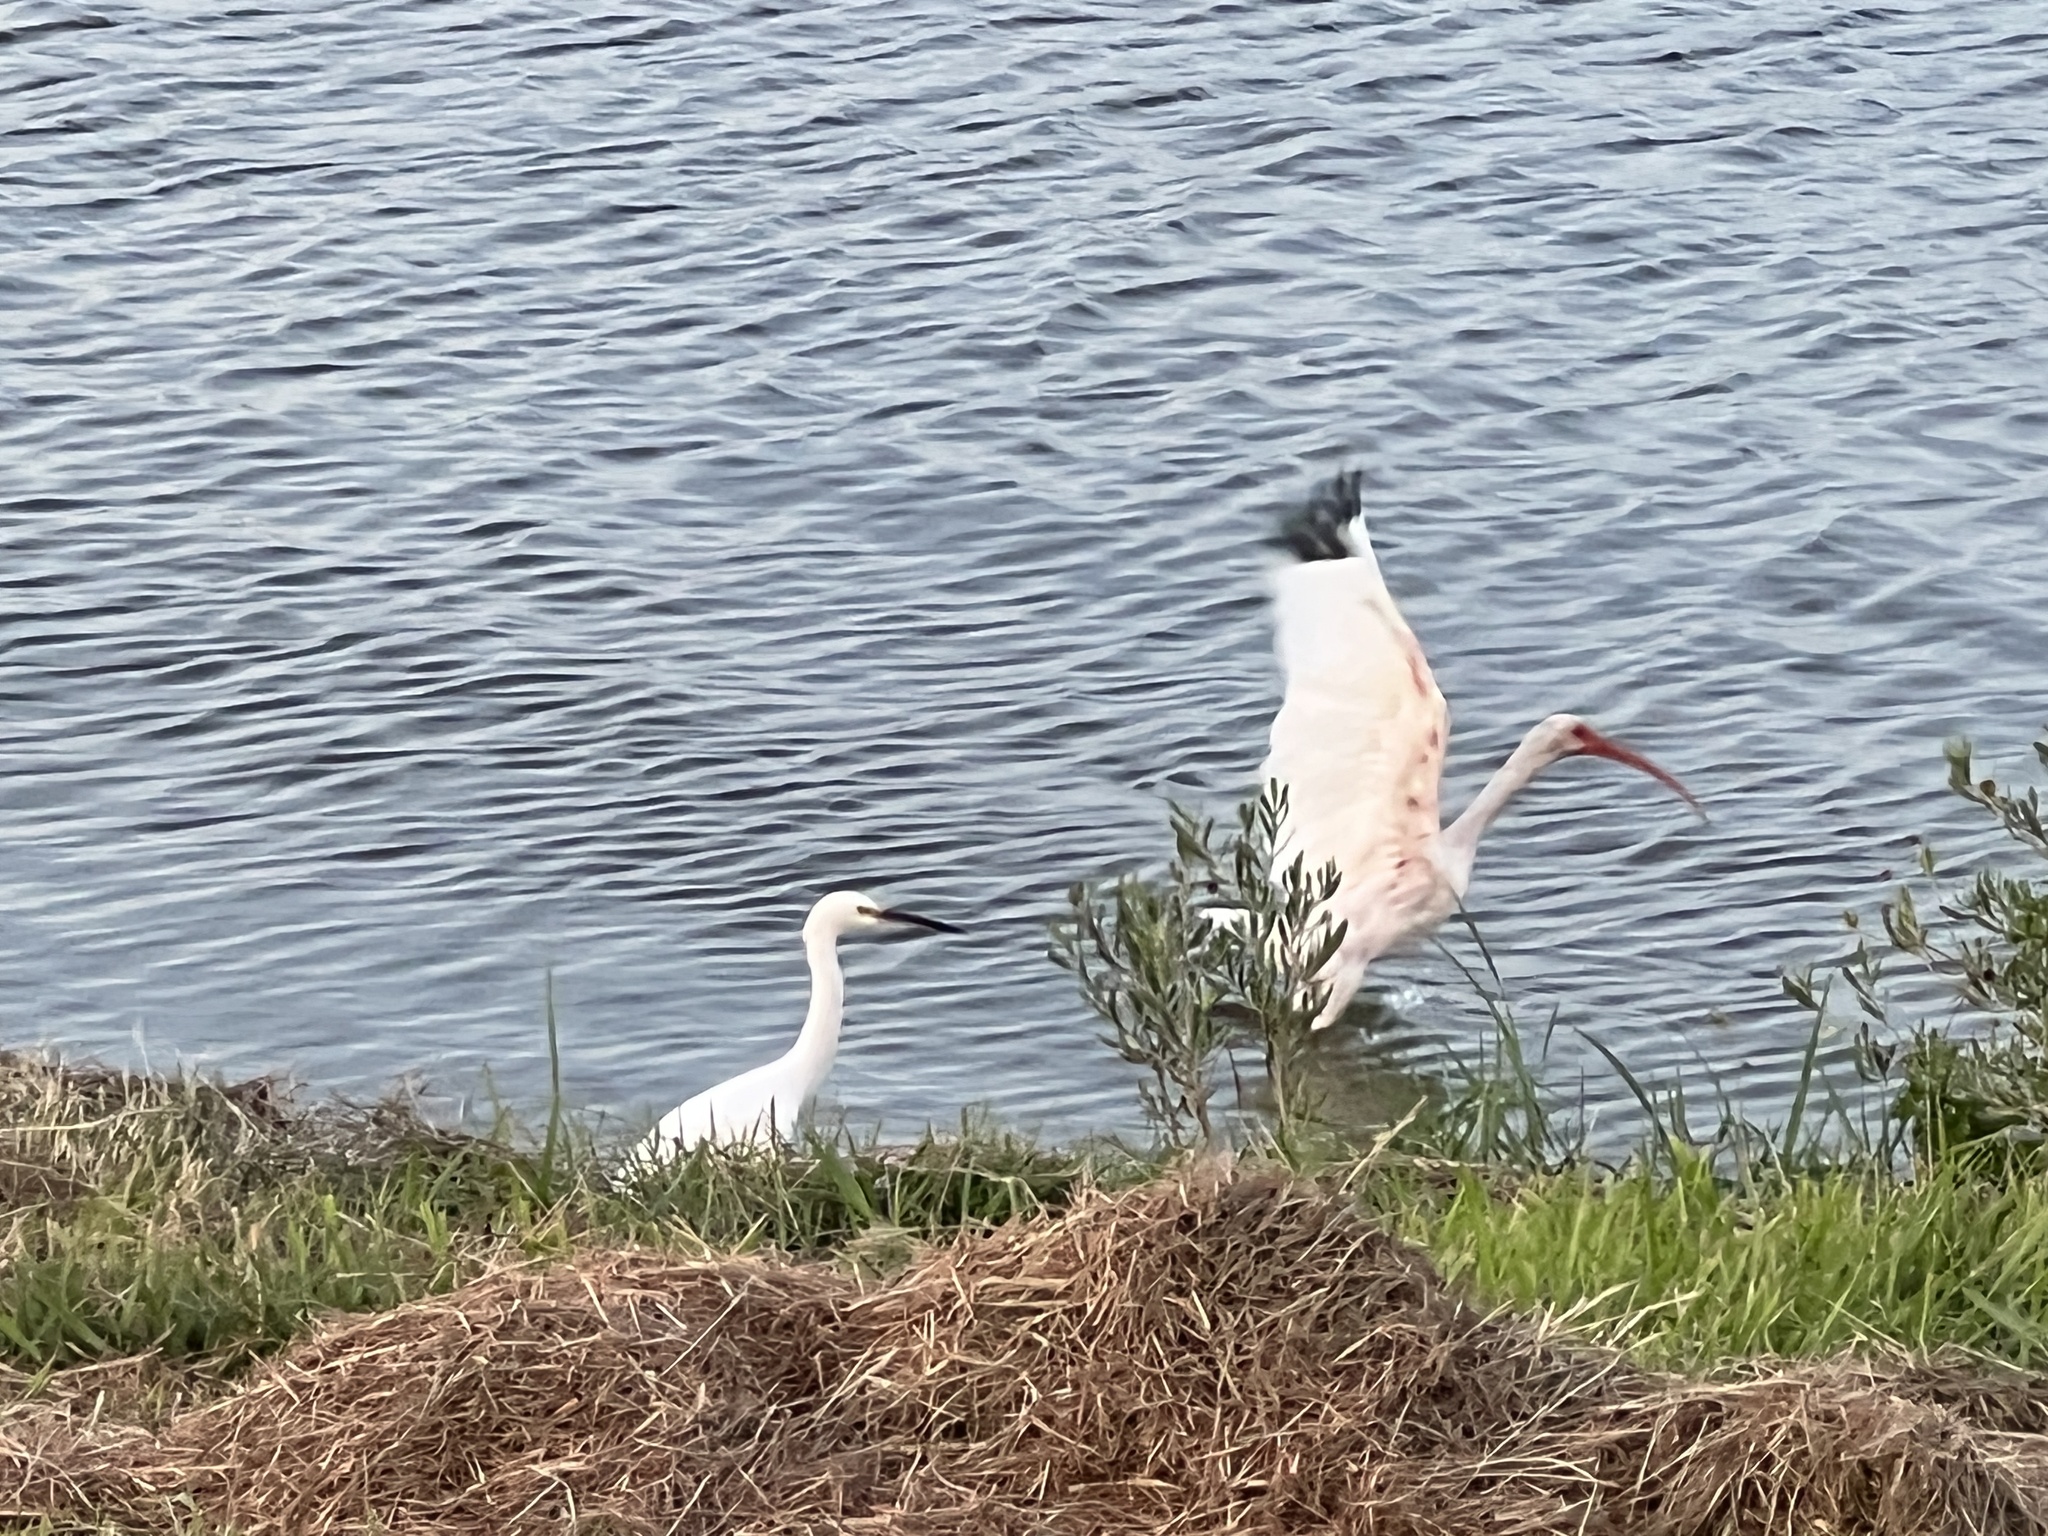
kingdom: Animalia
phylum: Chordata
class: Aves
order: Pelecaniformes
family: Ardeidae
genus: Egretta
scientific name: Egretta thula
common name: Snowy egret
